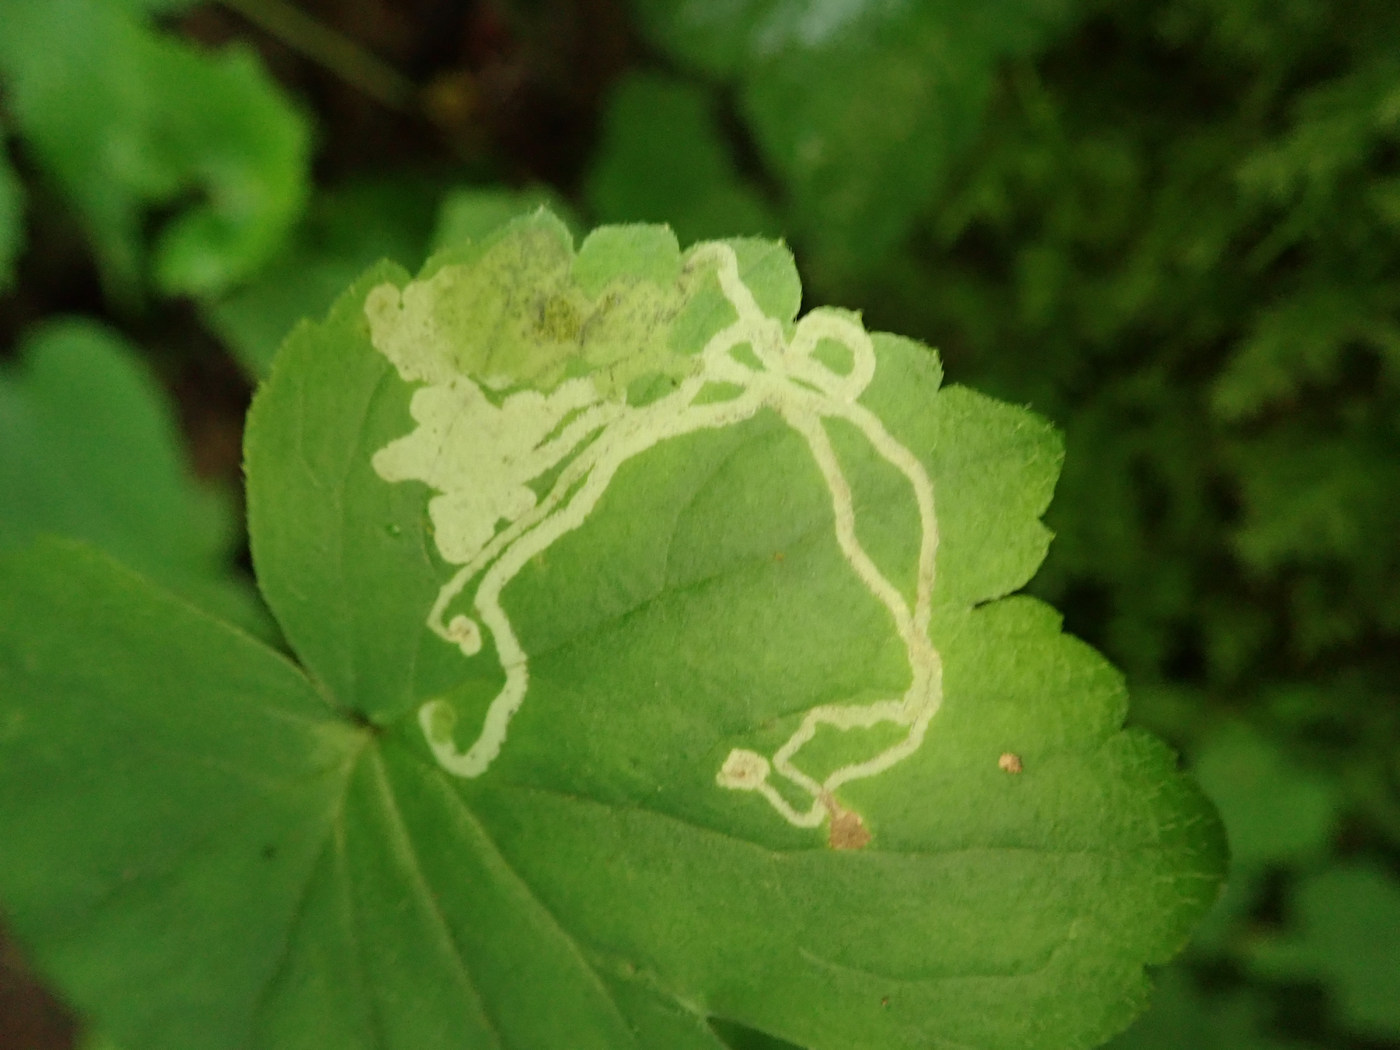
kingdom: Animalia
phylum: Arthropoda
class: Insecta
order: Diptera
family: Agromyzidae
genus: Phytomyza
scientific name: Phytomyza loewii
